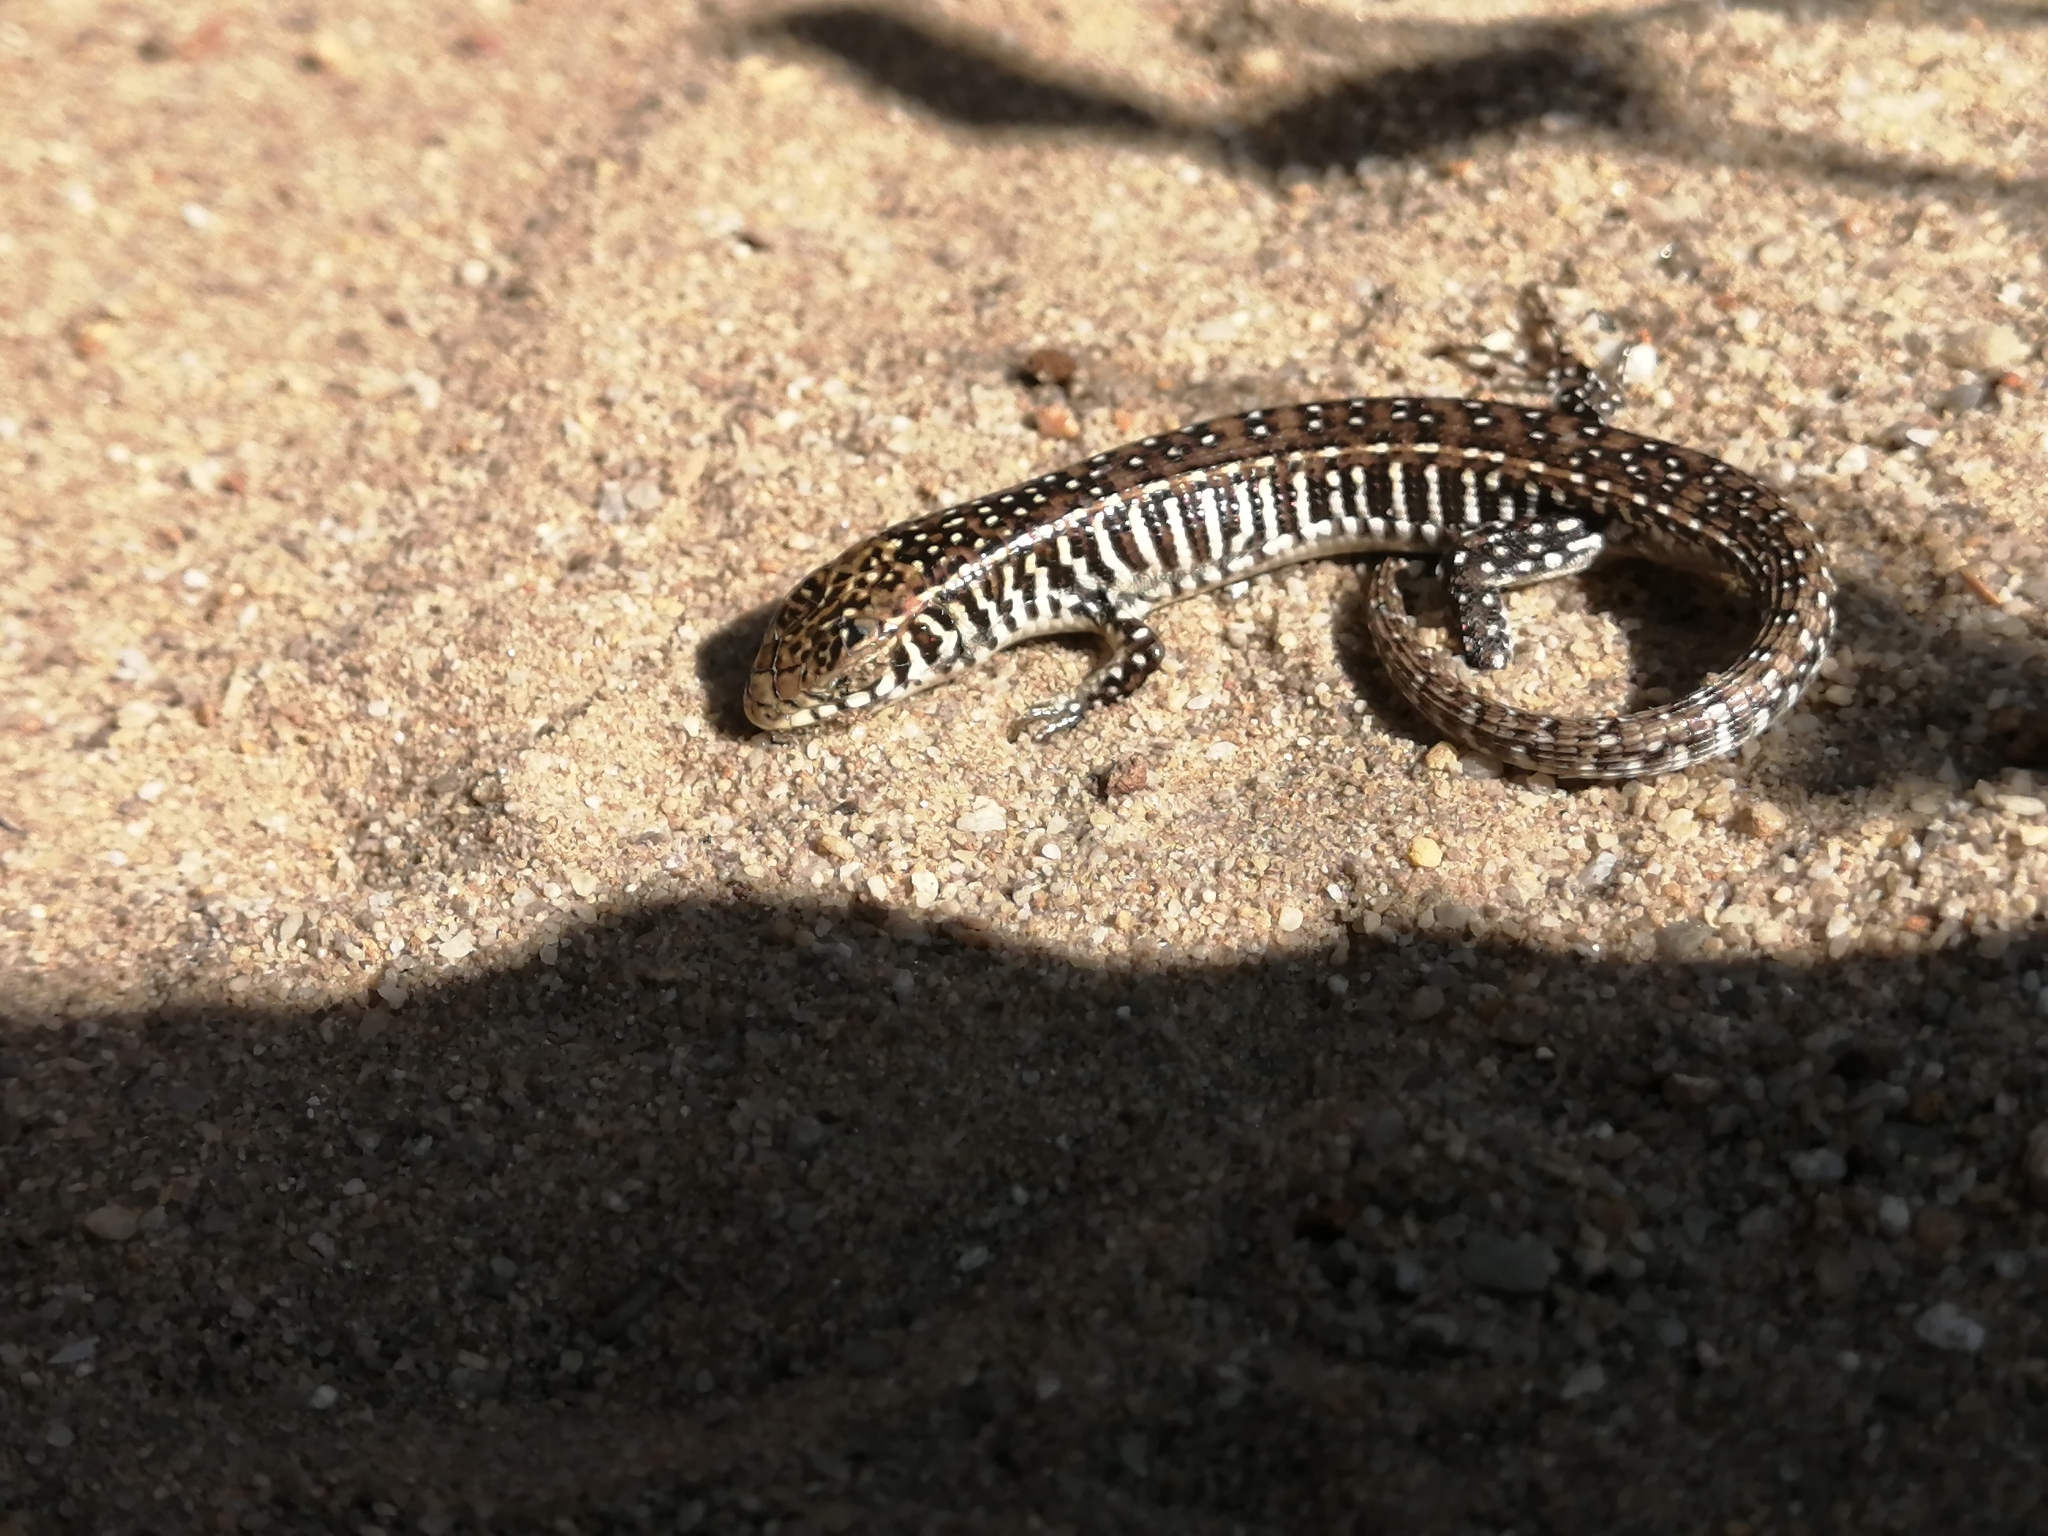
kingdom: Animalia
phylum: Chordata
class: Squamata
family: Gerrhosauridae
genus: Gerrhosaurus
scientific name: Gerrhosaurus flavigularis
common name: Yellow-throated plated lizard
